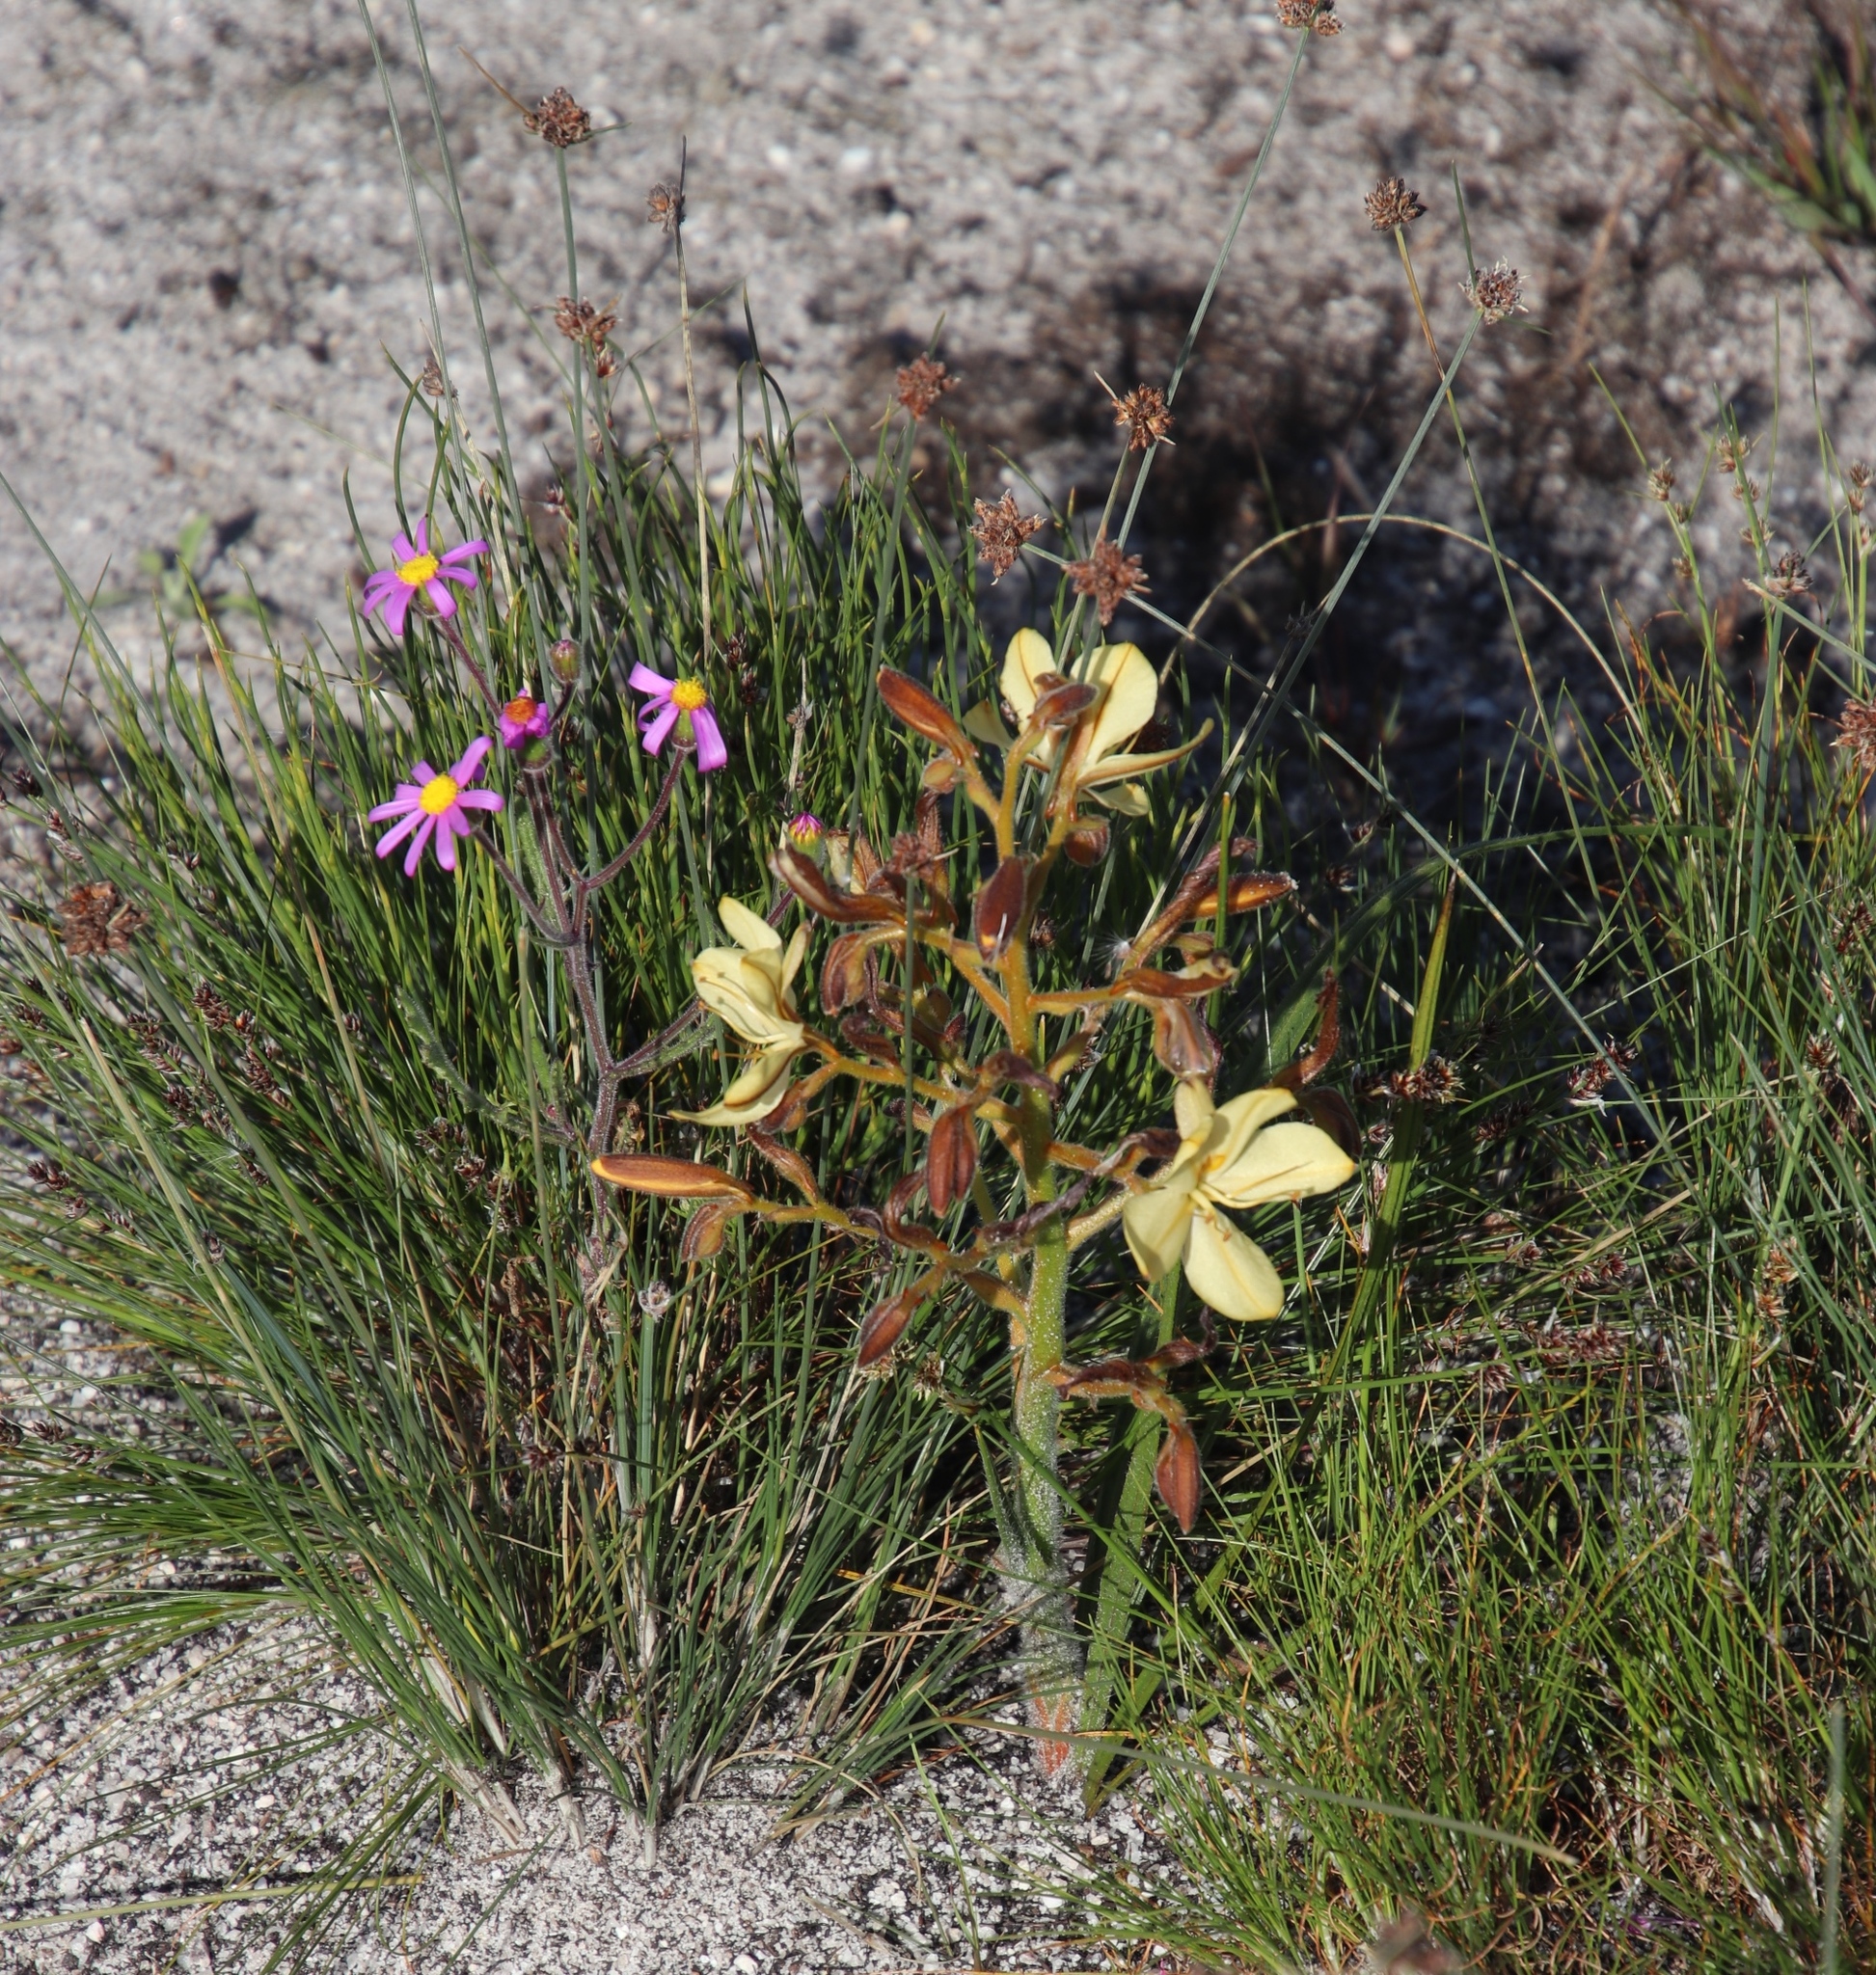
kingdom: Plantae
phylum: Tracheophyta
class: Liliopsida
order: Commelinales
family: Haemodoraceae
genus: Wachendorfia
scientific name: Wachendorfia paniculata
